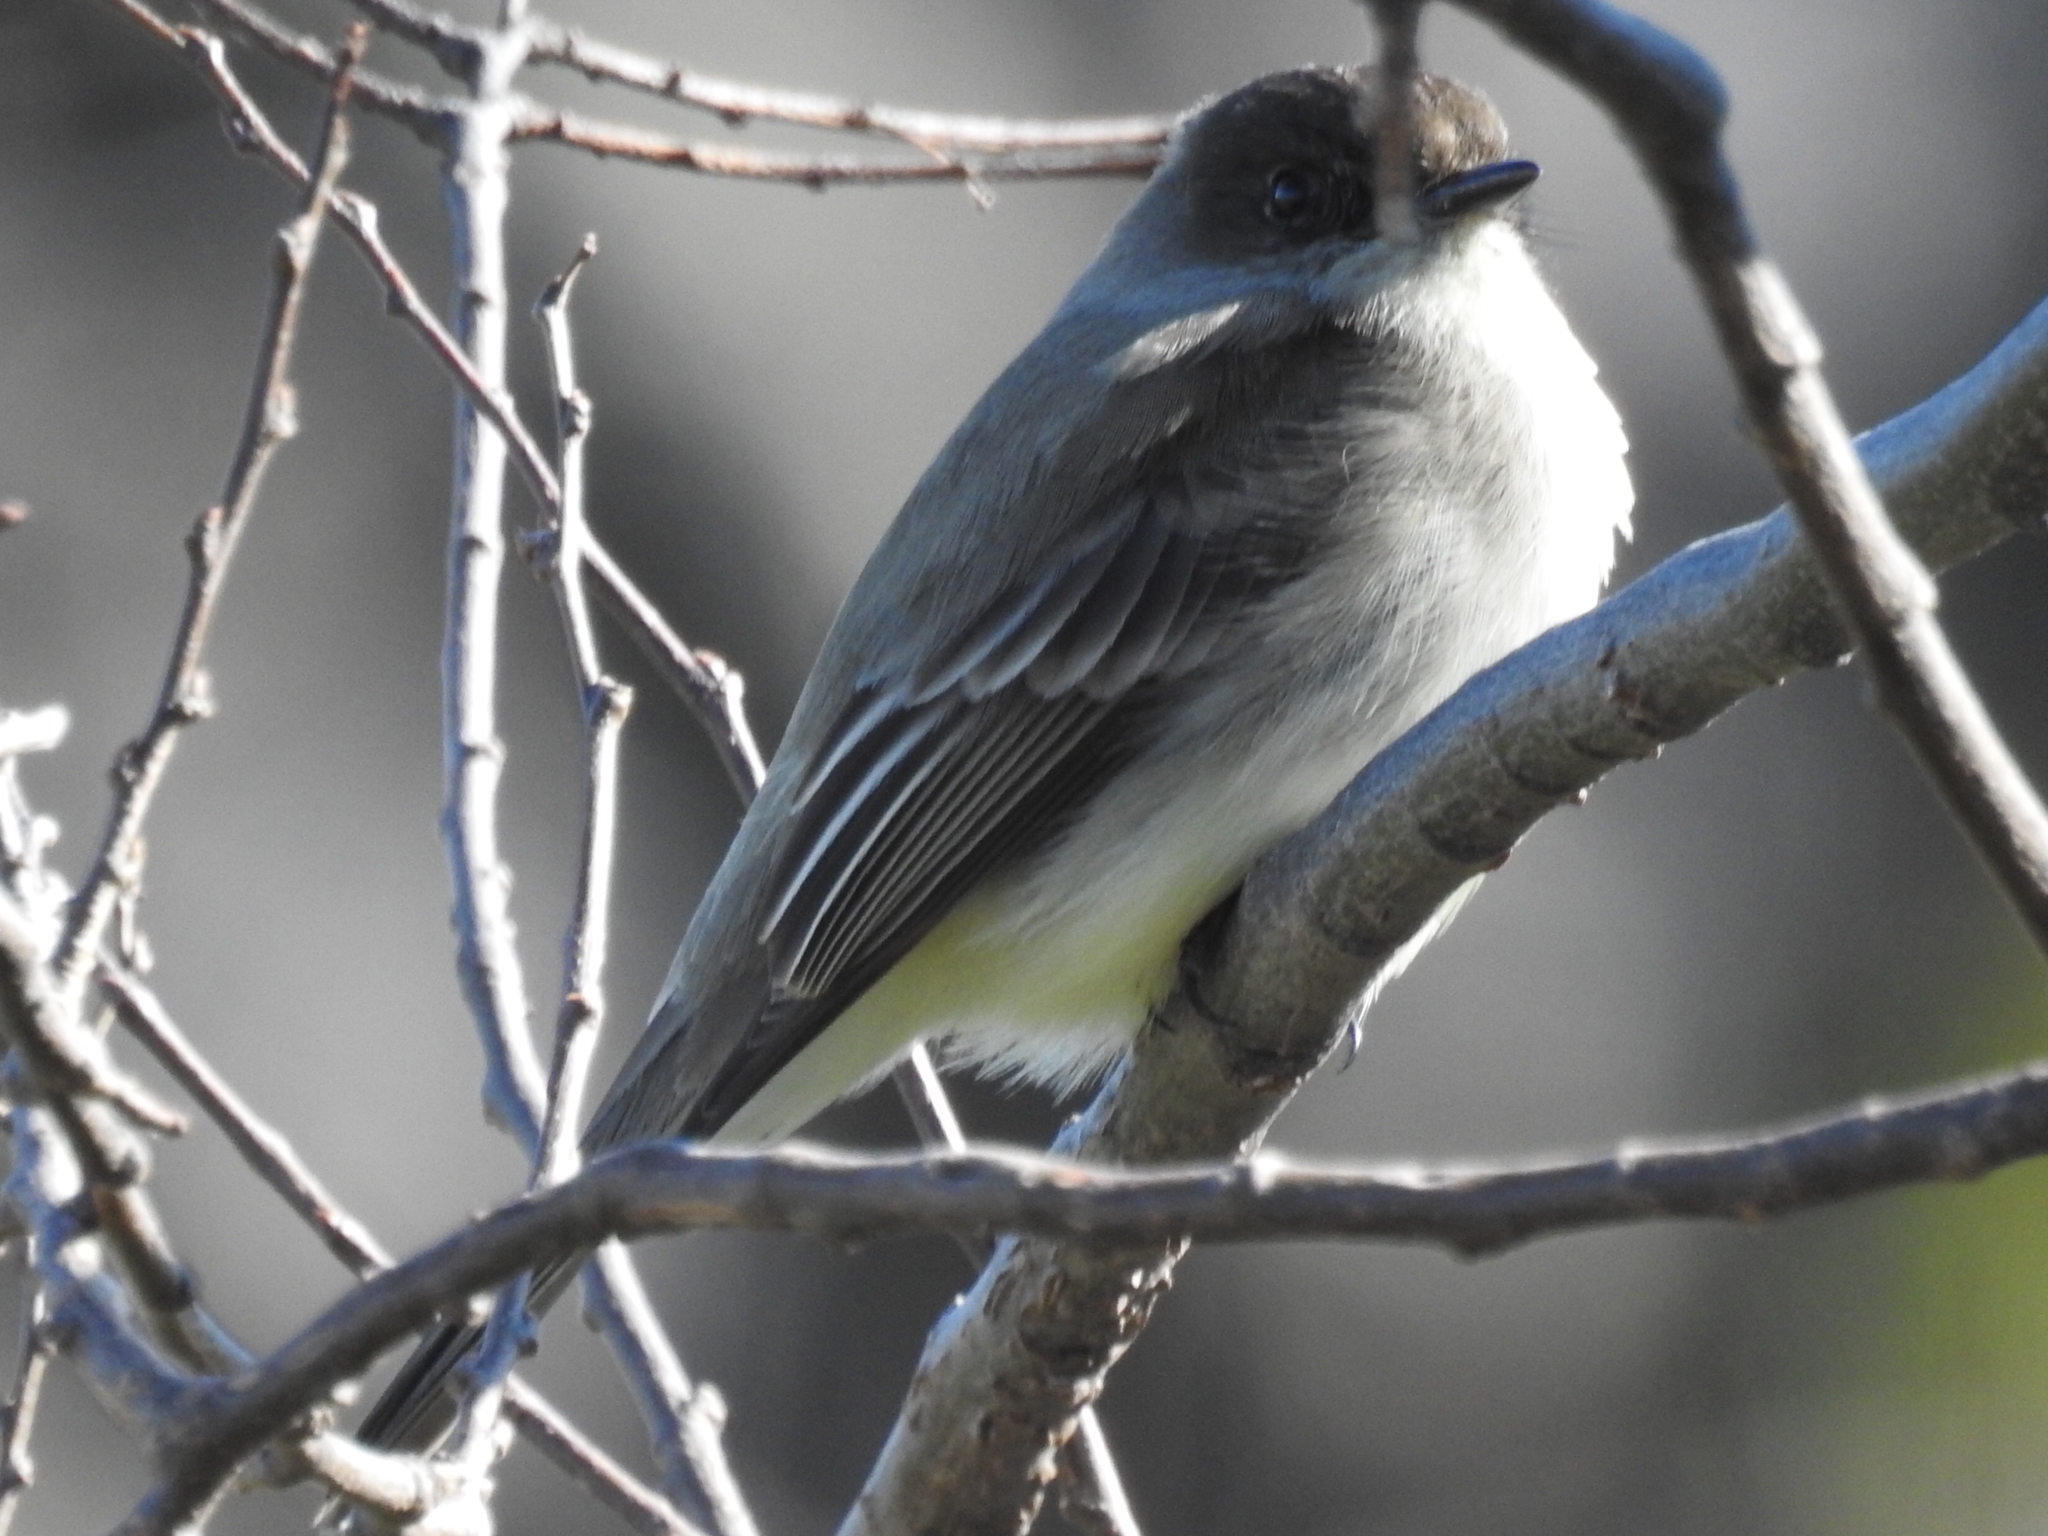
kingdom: Animalia
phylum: Chordata
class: Aves
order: Passeriformes
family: Tyrannidae
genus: Sayornis
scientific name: Sayornis phoebe
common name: Eastern phoebe
